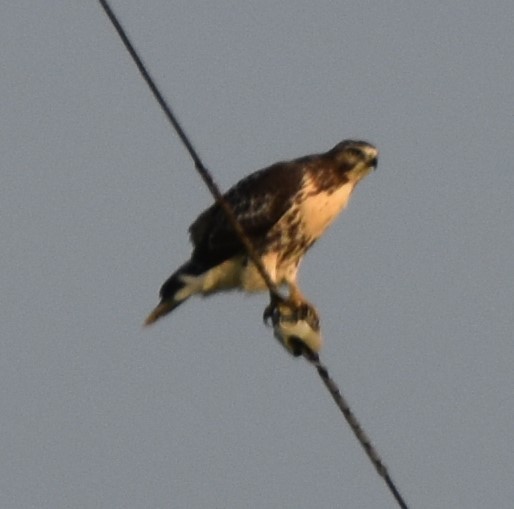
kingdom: Animalia
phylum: Chordata
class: Aves
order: Accipitriformes
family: Accipitridae
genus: Buteo
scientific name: Buteo jamaicensis
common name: Red-tailed hawk
